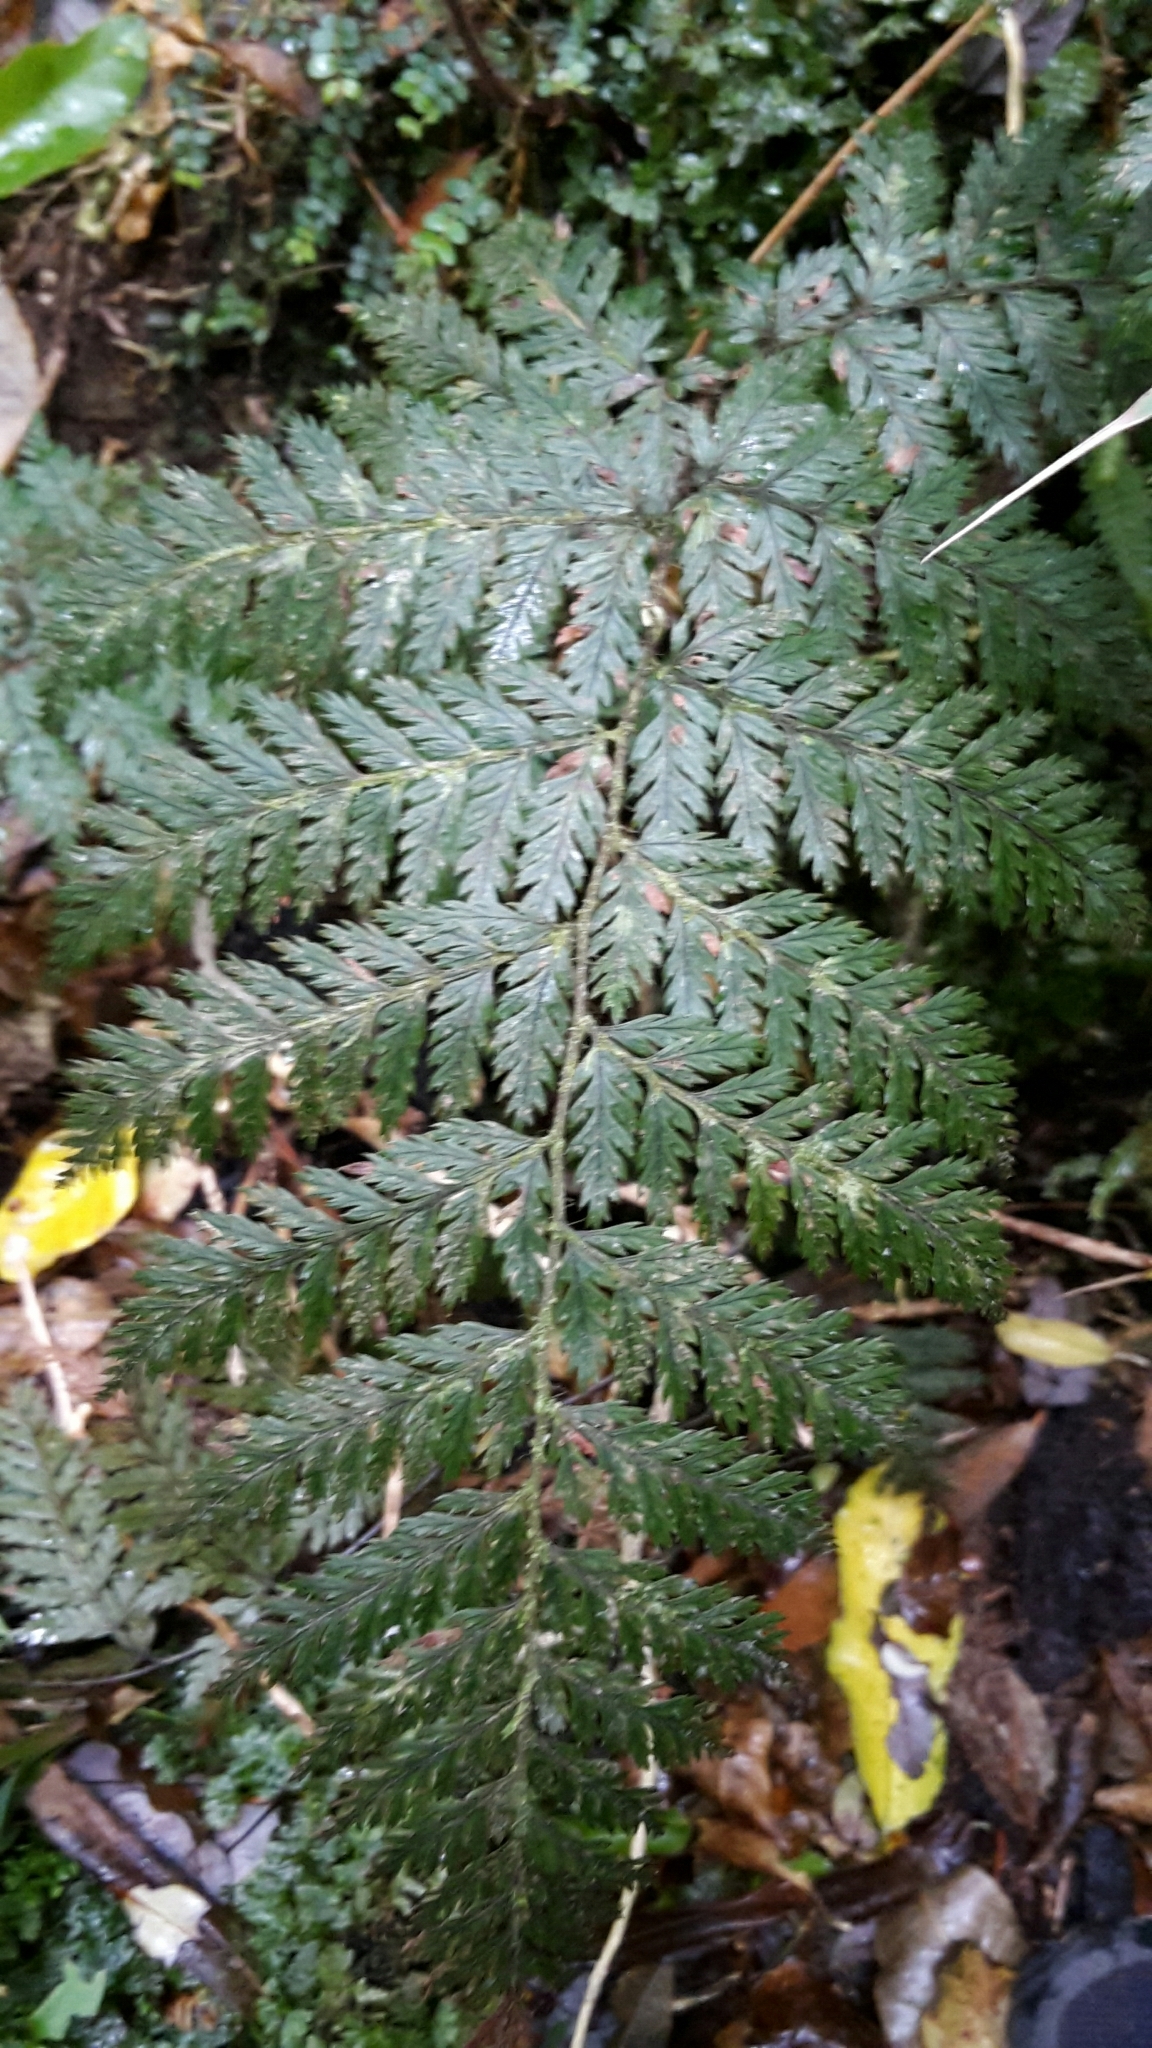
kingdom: Plantae
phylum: Tracheophyta
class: Polypodiopsida
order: Polypodiales
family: Dryopteridaceae
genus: Lastreopsis
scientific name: Lastreopsis hispida
